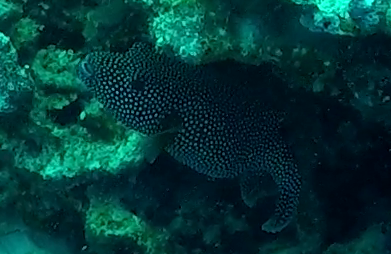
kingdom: Animalia
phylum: Chordata
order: Tetraodontiformes
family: Tetraodontidae
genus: Arothron
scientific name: Arothron meleagris
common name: Guinea-fowl pufferfish
